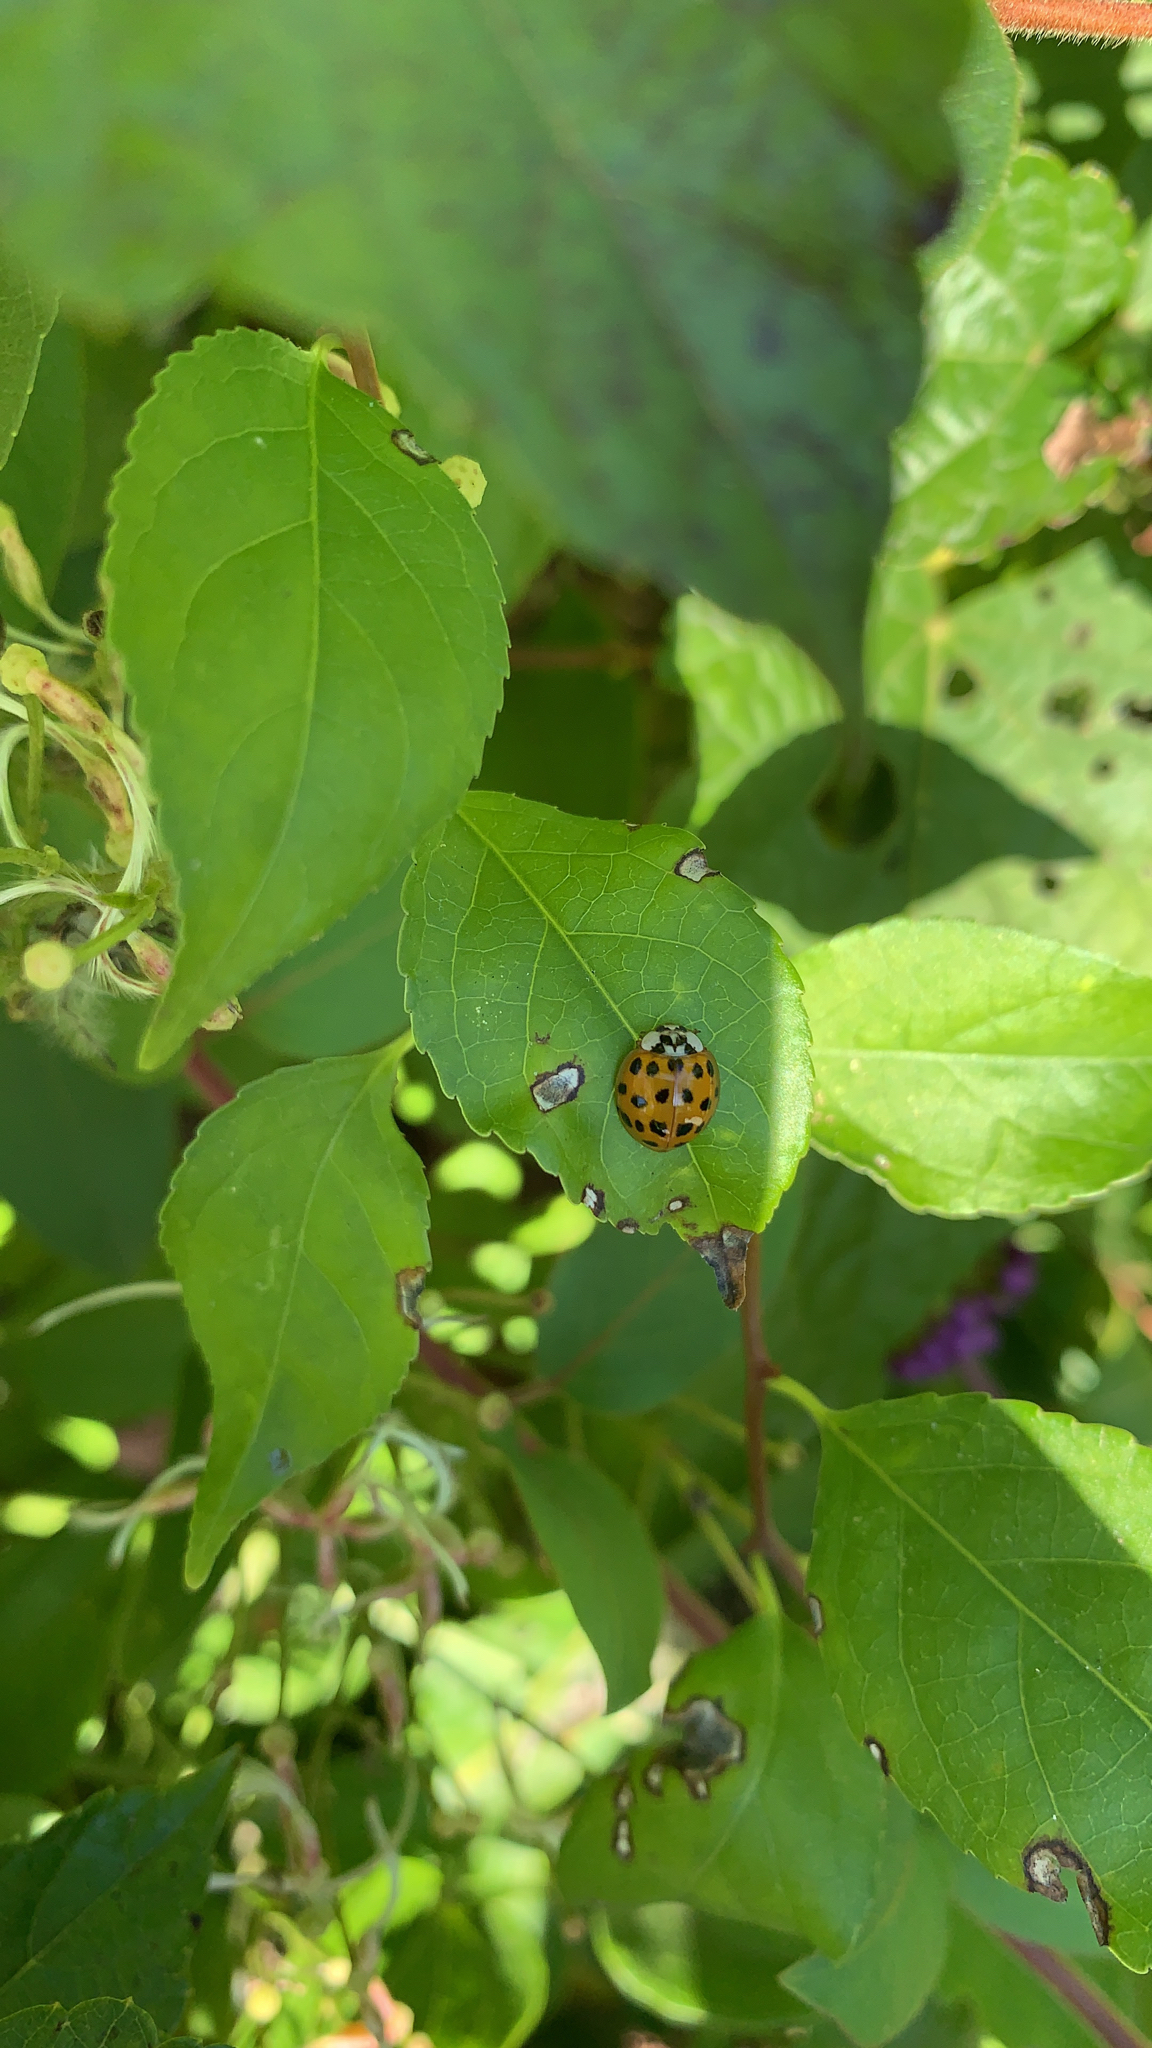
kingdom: Animalia
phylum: Arthropoda
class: Insecta
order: Coleoptera
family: Coccinellidae
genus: Harmonia
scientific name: Harmonia axyridis
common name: Harlequin ladybird
